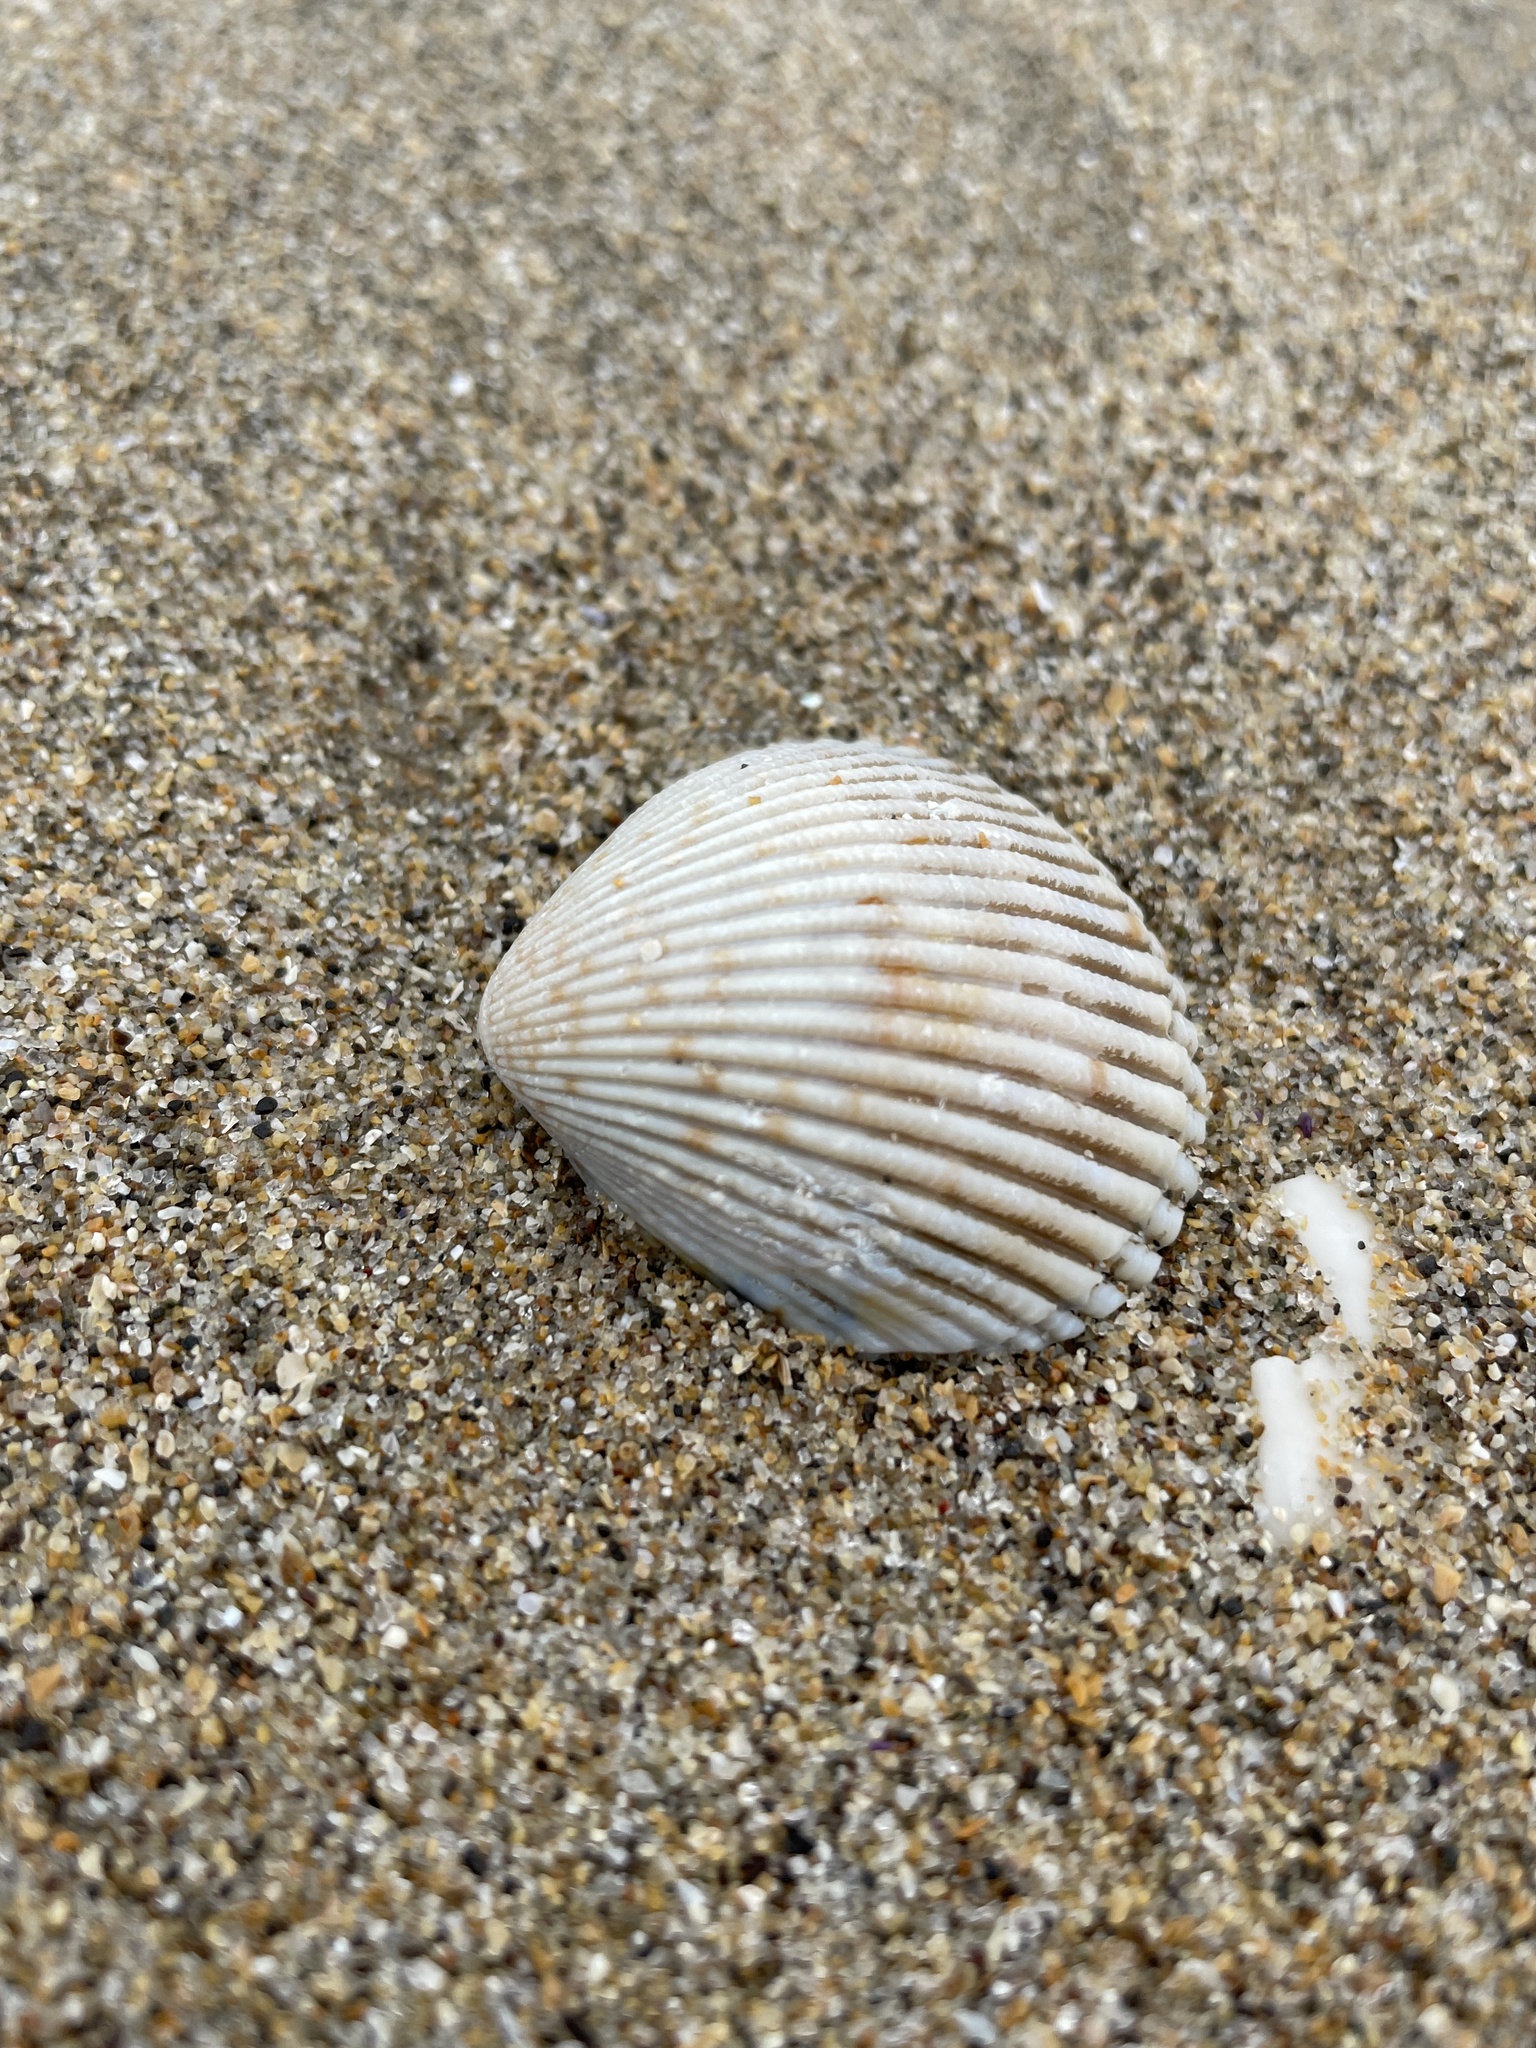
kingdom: Animalia
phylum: Mollusca
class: Bivalvia
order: Cardiida
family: Cardiidae
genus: Clinocardium
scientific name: Clinocardium nuttallii
